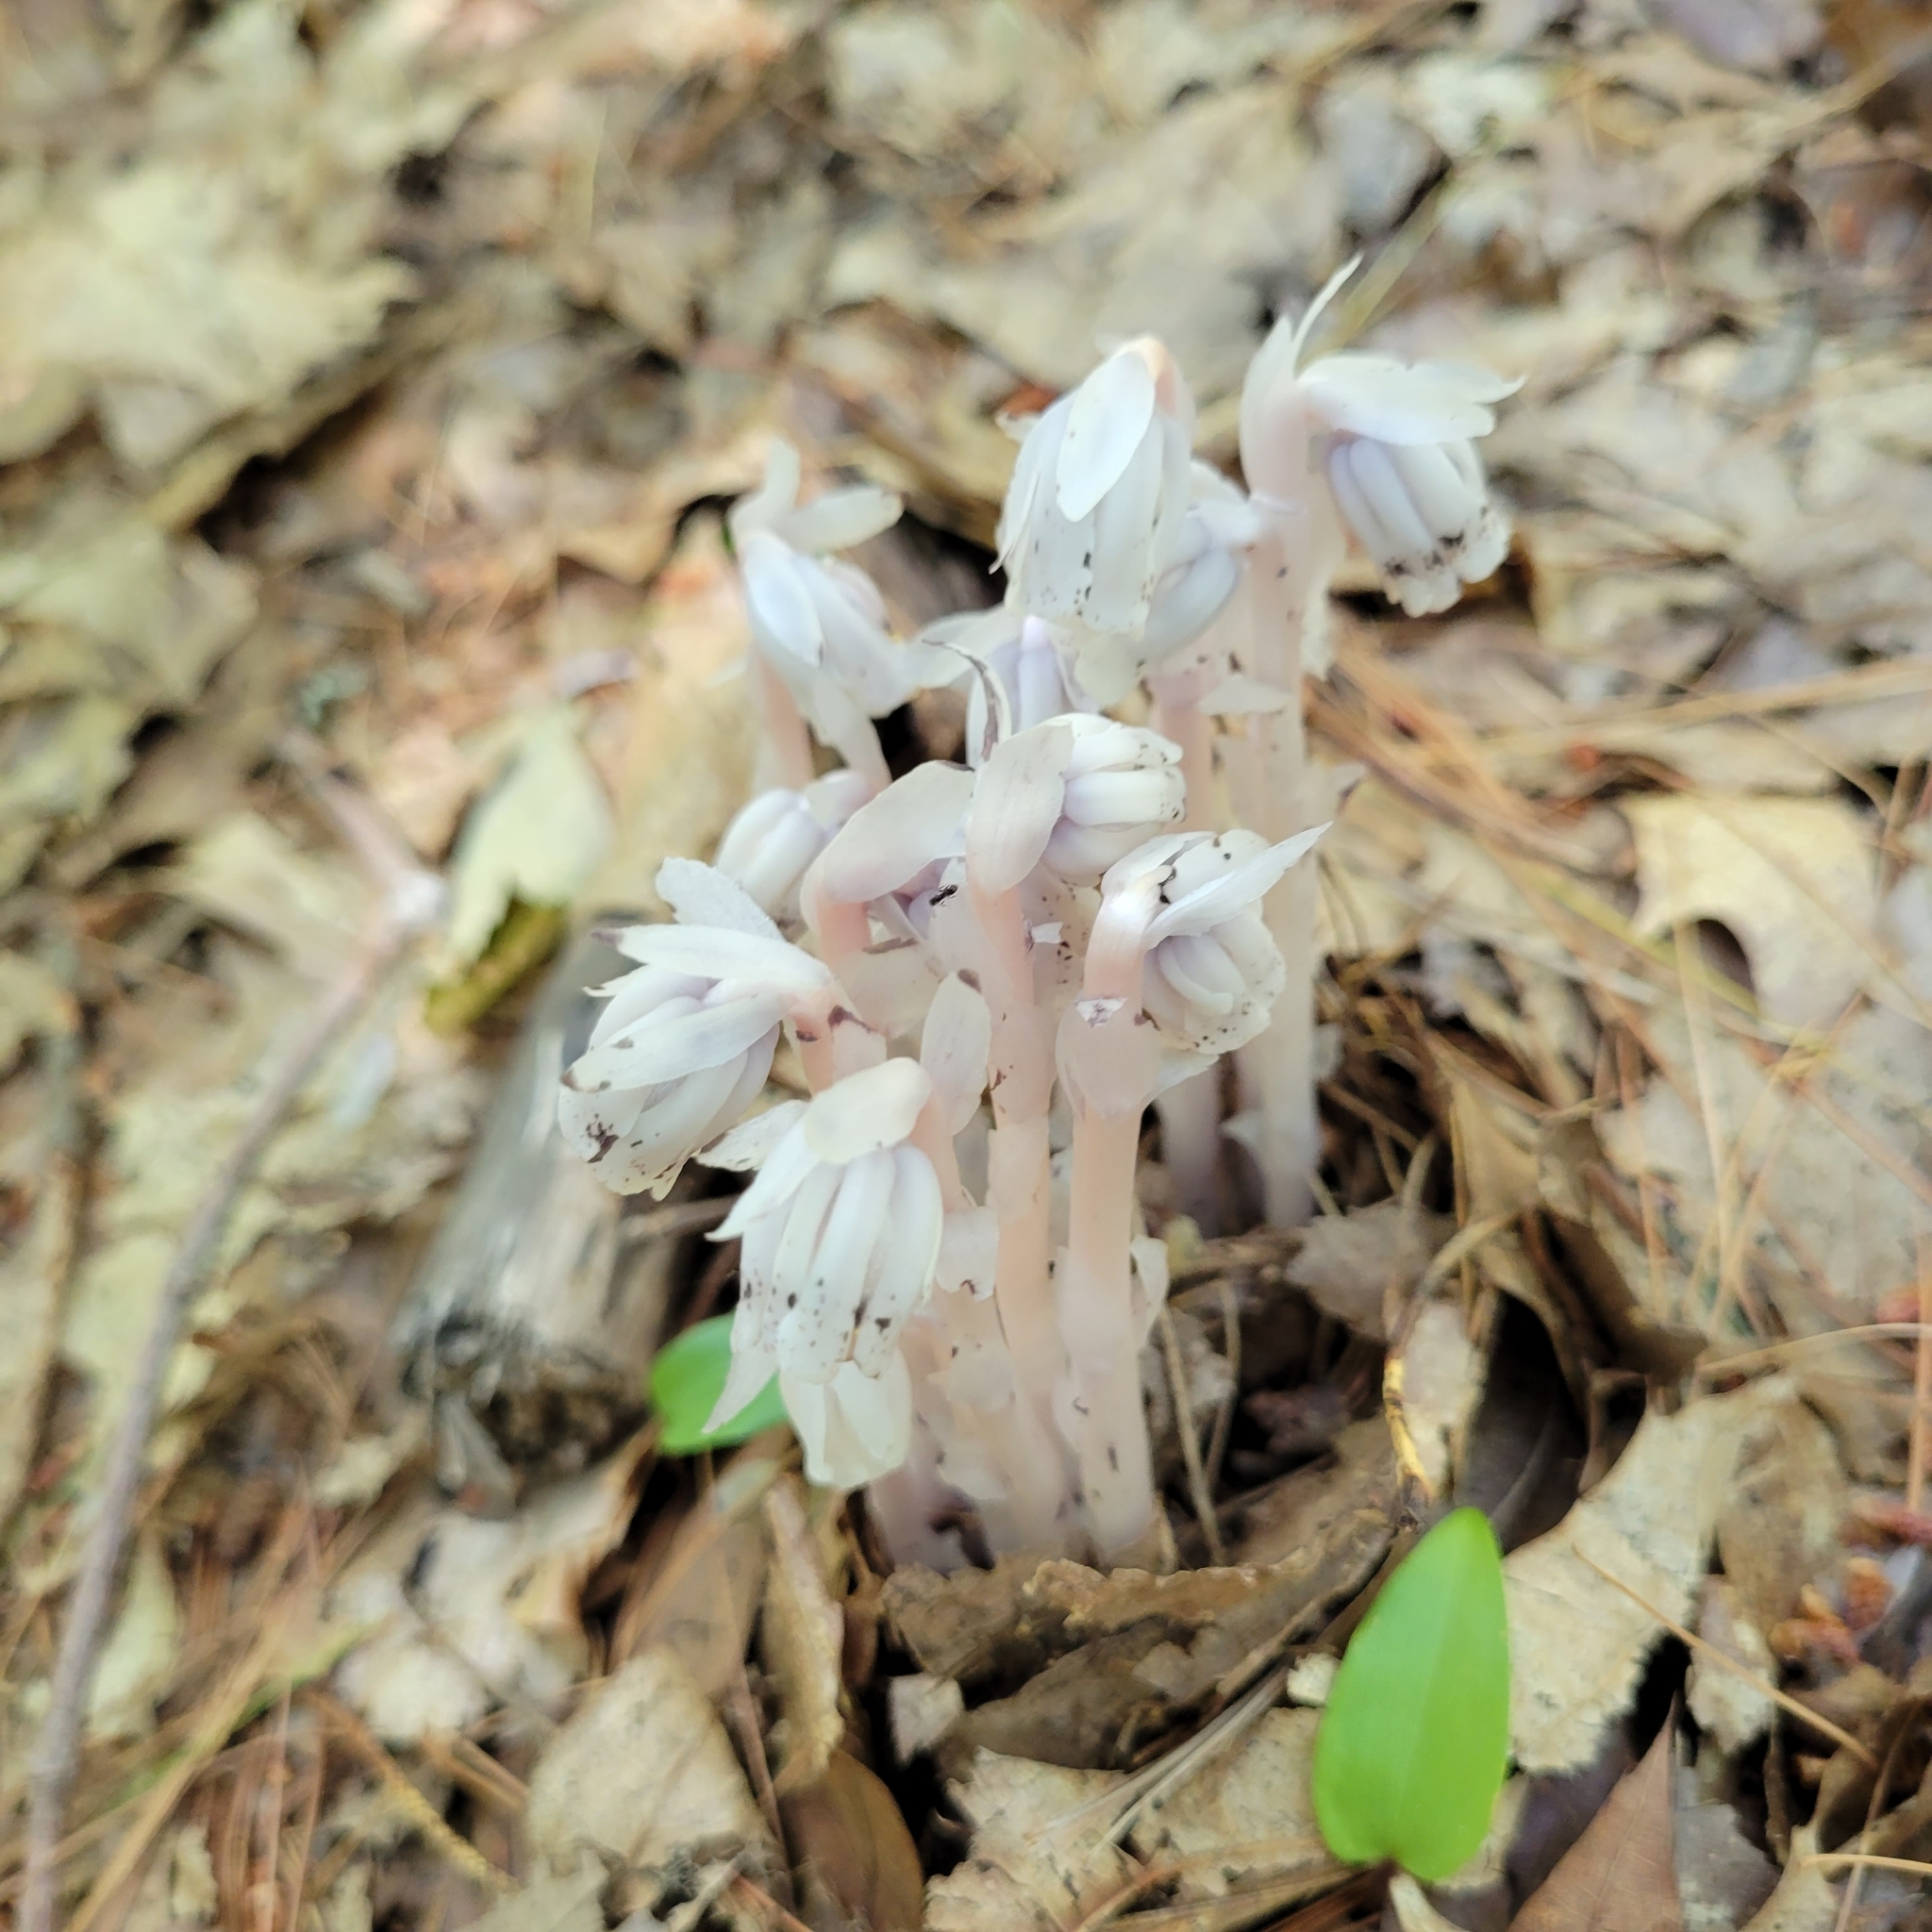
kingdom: Plantae
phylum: Tracheophyta
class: Magnoliopsida
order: Ericales
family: Ericaceae
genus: Monotropa
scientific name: Monotropa uniflora
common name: Convulsion root
